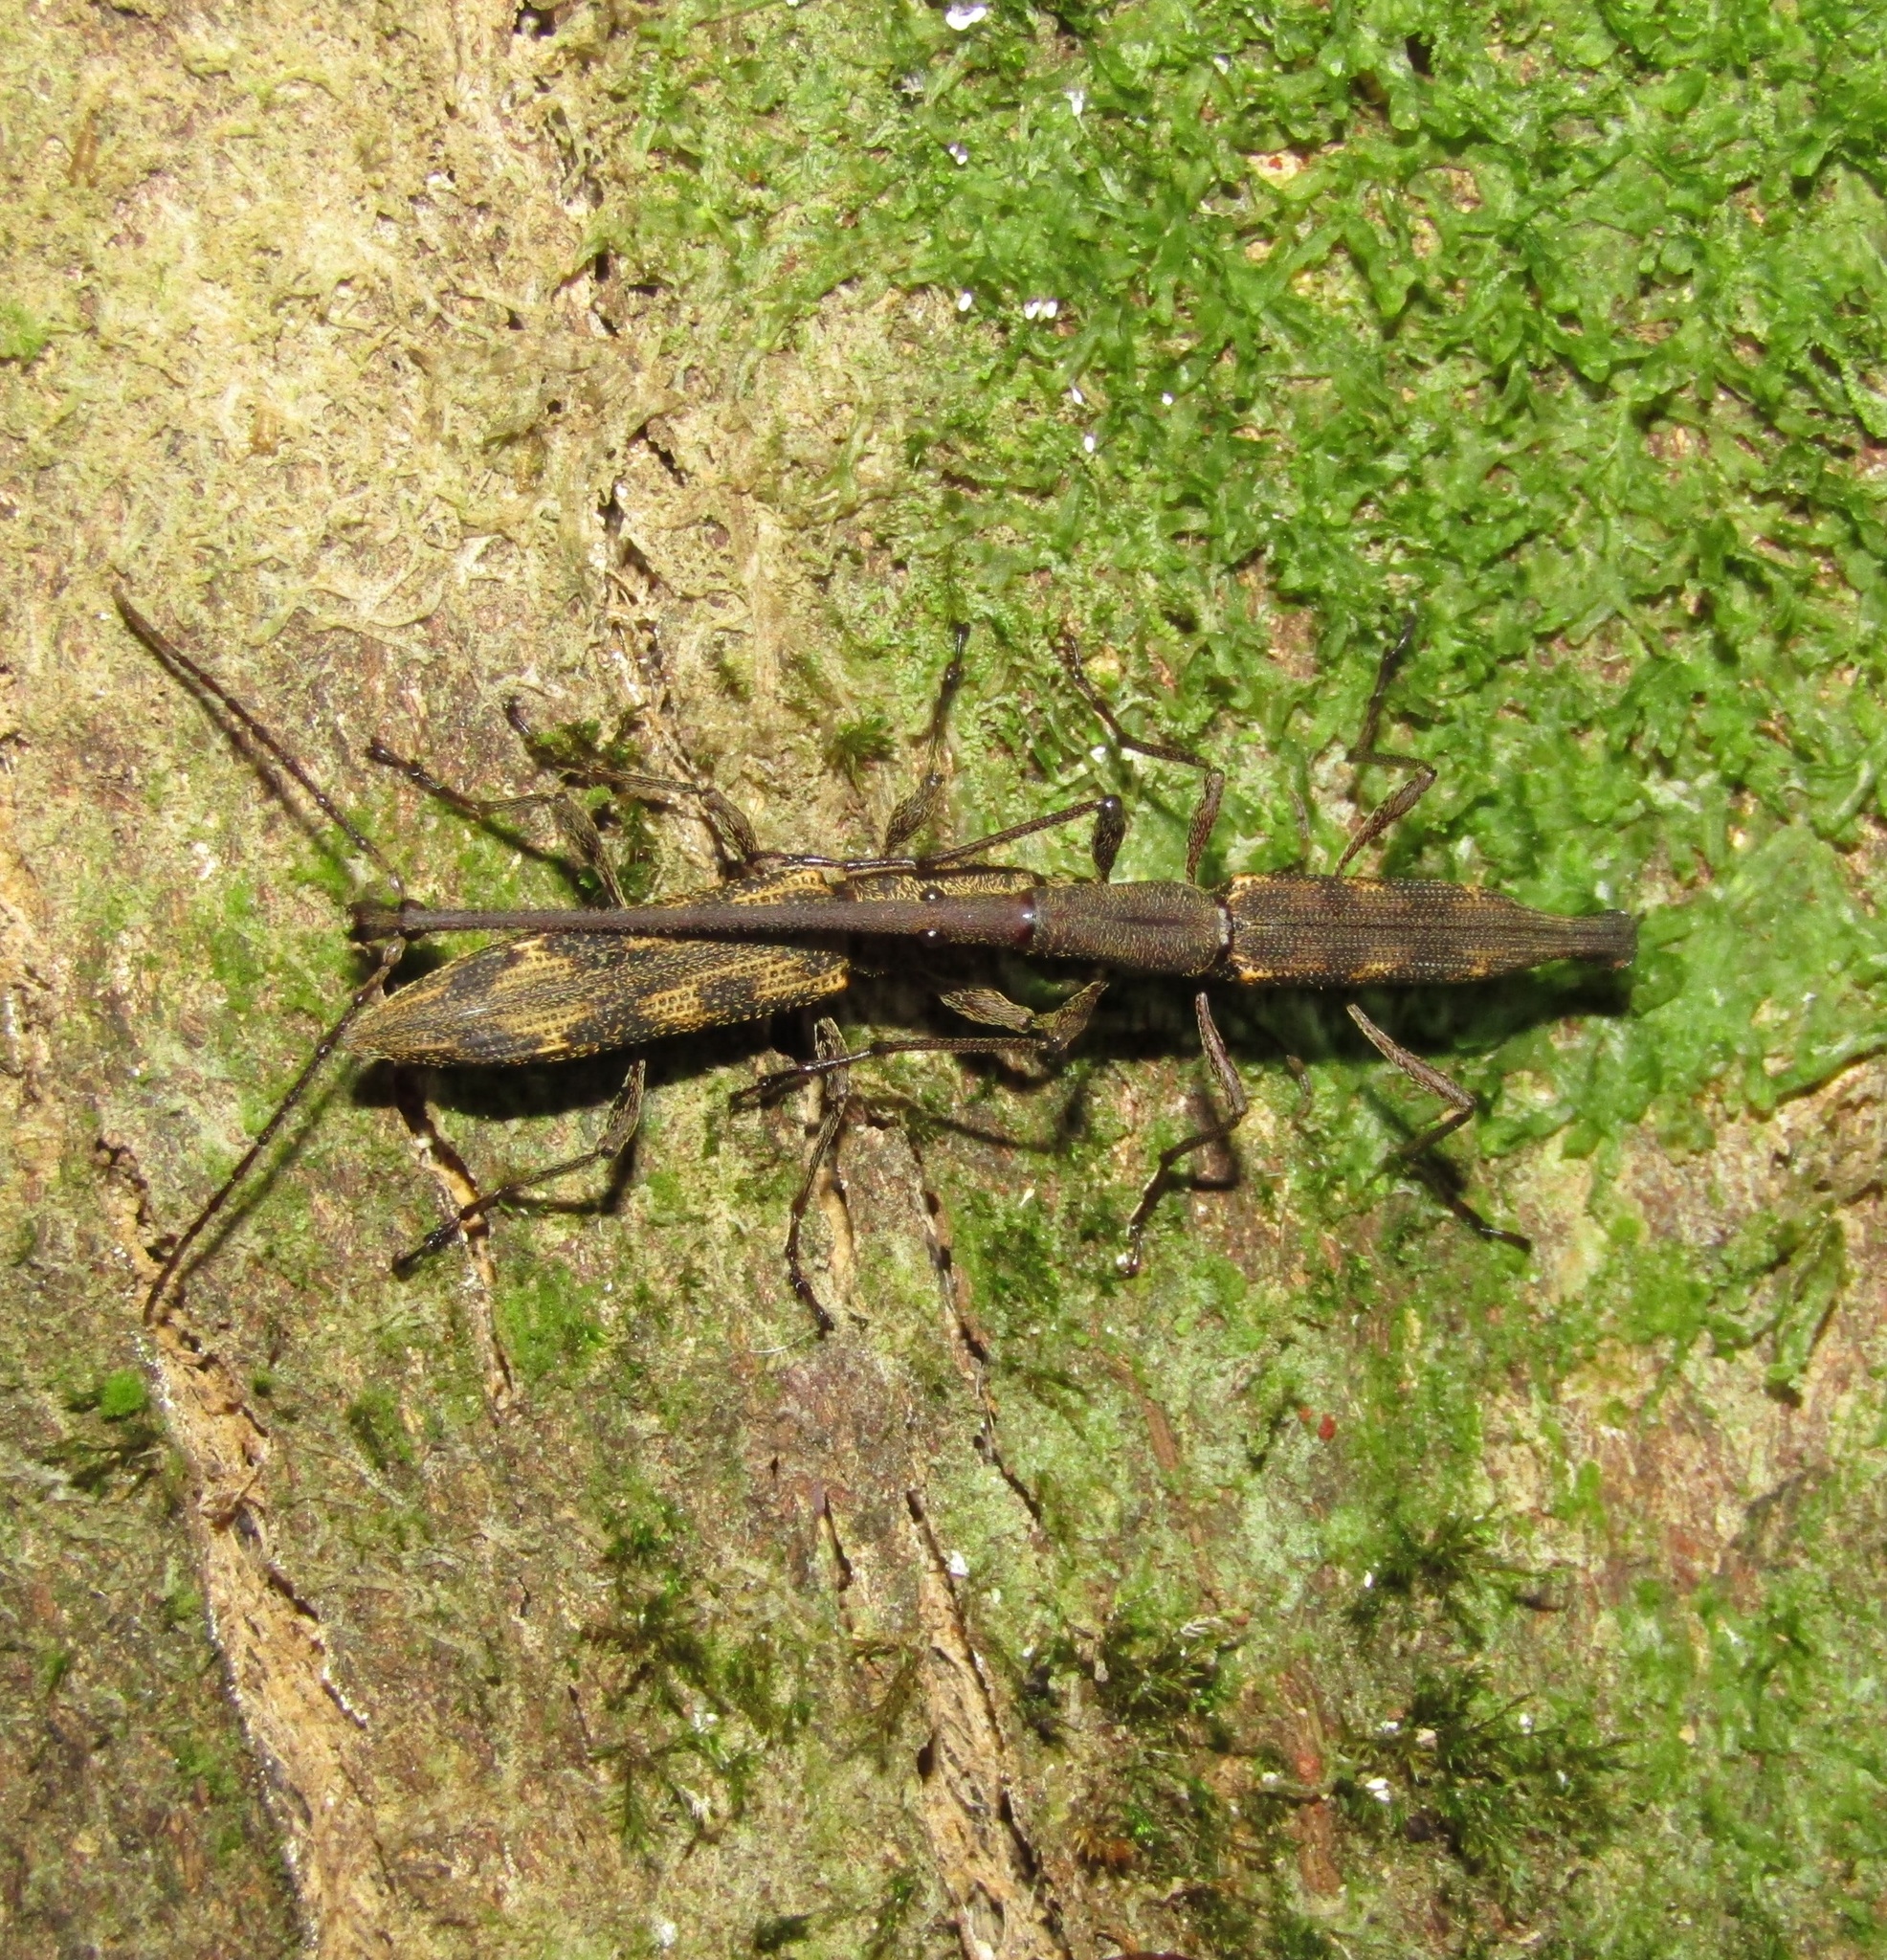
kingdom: Animalia
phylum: Arthropoda
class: Insecta
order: Coleoptera
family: Brentidae
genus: Lasiorhynchus
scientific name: Lasiorhynchus barbicornis
